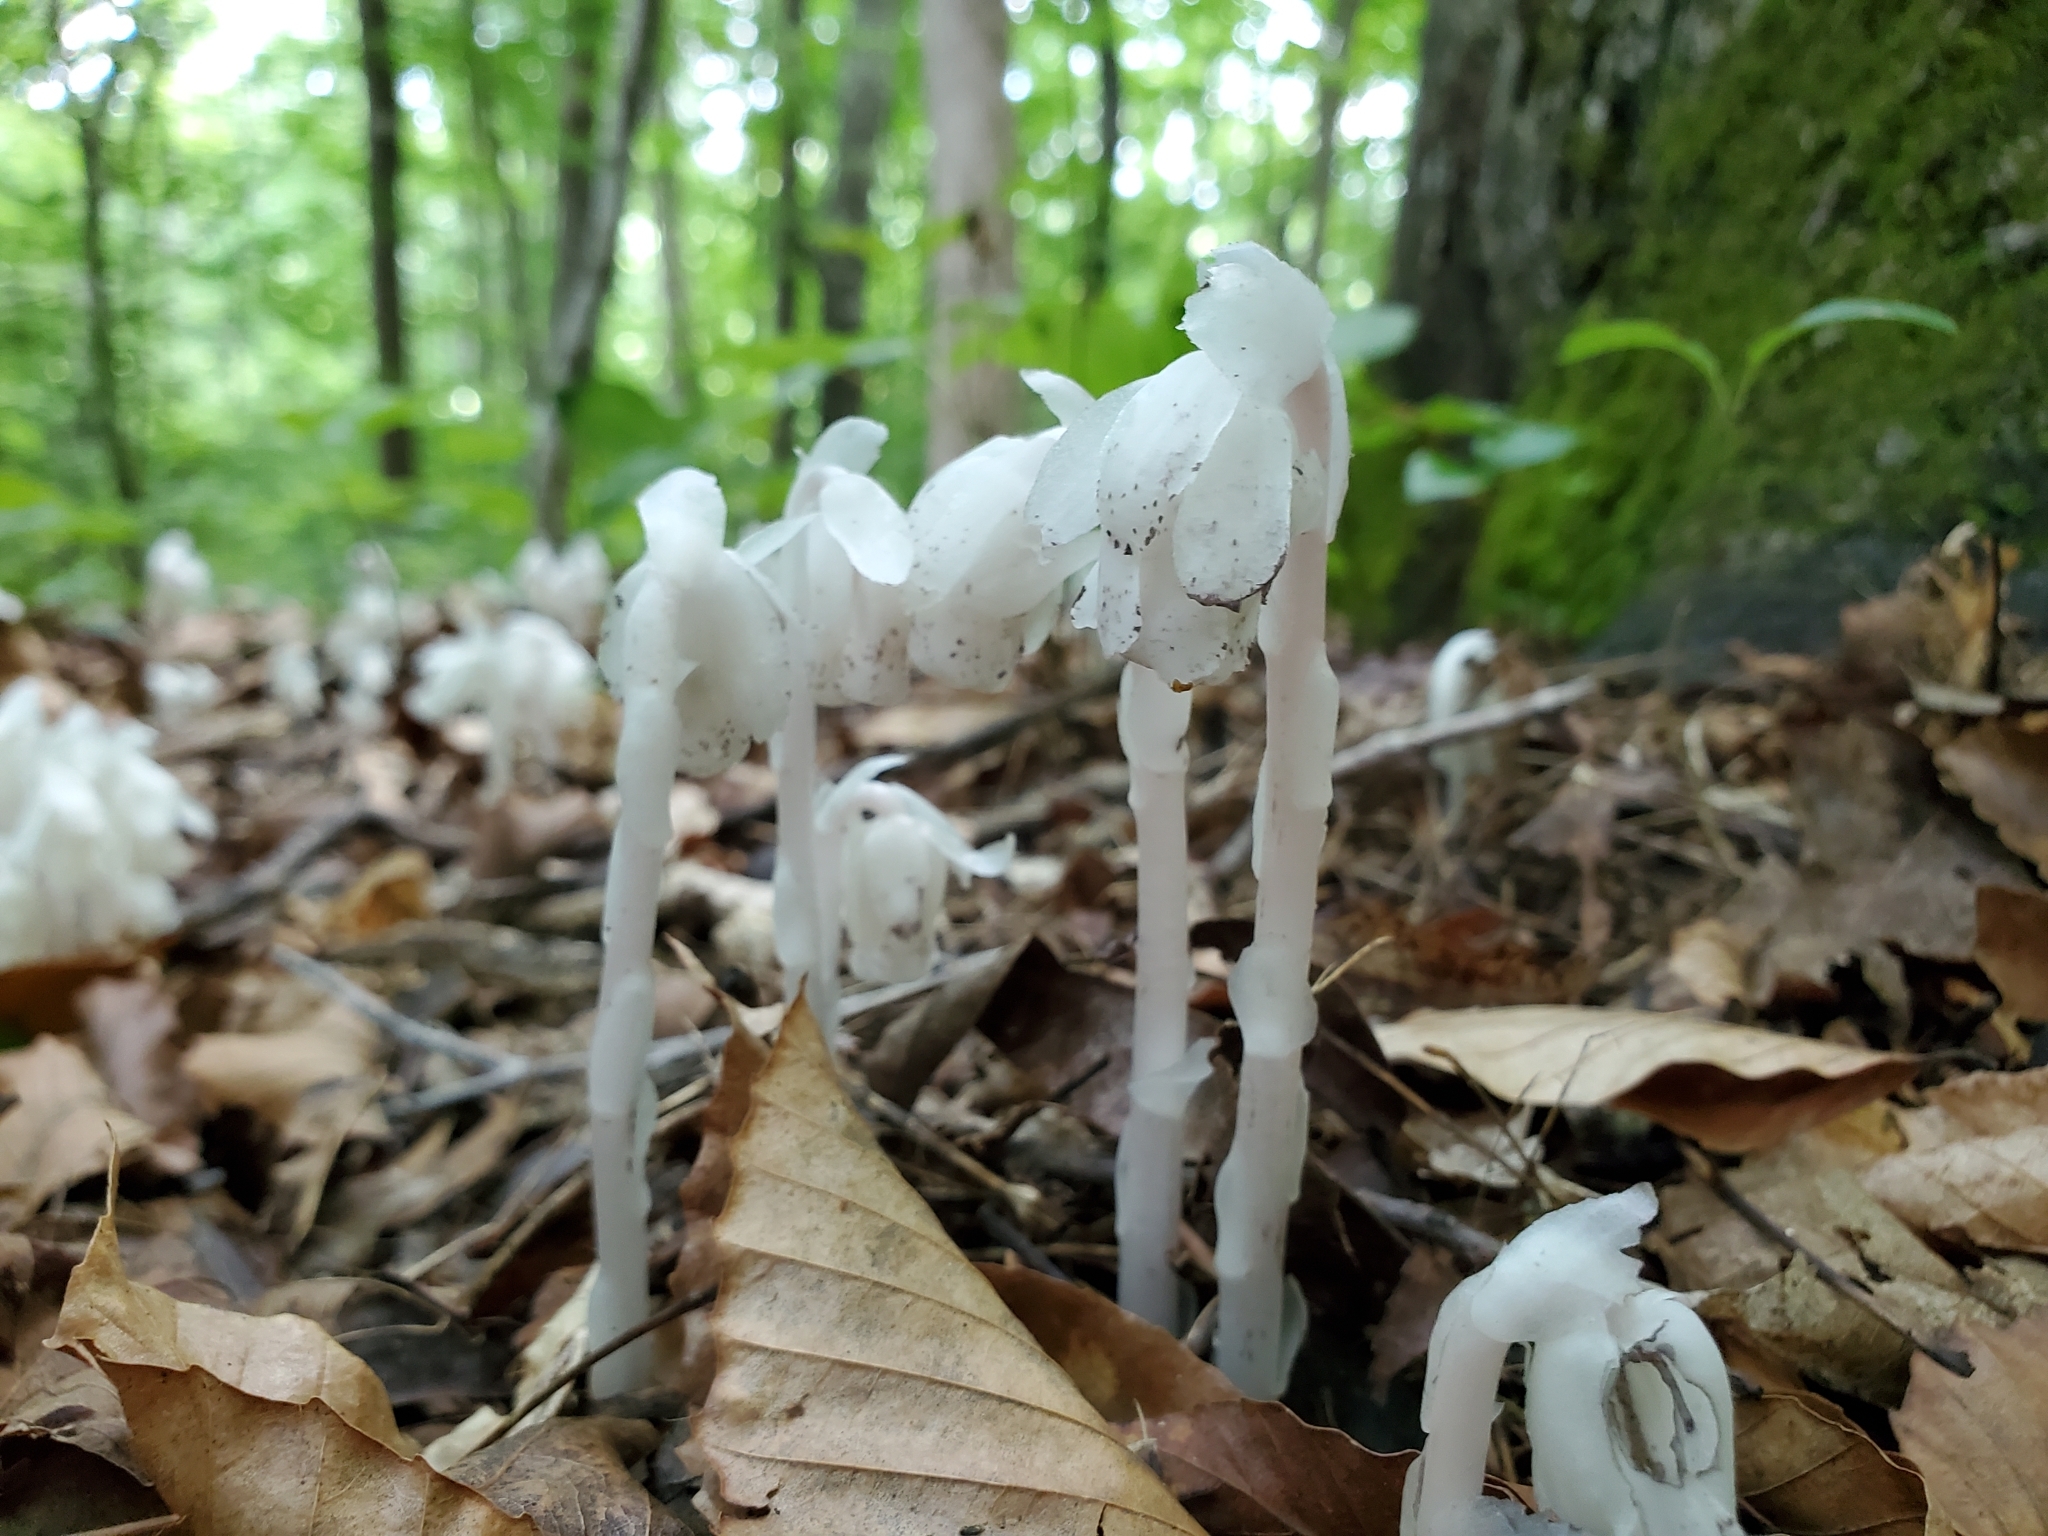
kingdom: Plantae
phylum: Tracheophyta
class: Magnoliopsida
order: Ericales
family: Ericaceae
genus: Monotropa
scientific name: Monotropa uniflora
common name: Convulsion root
